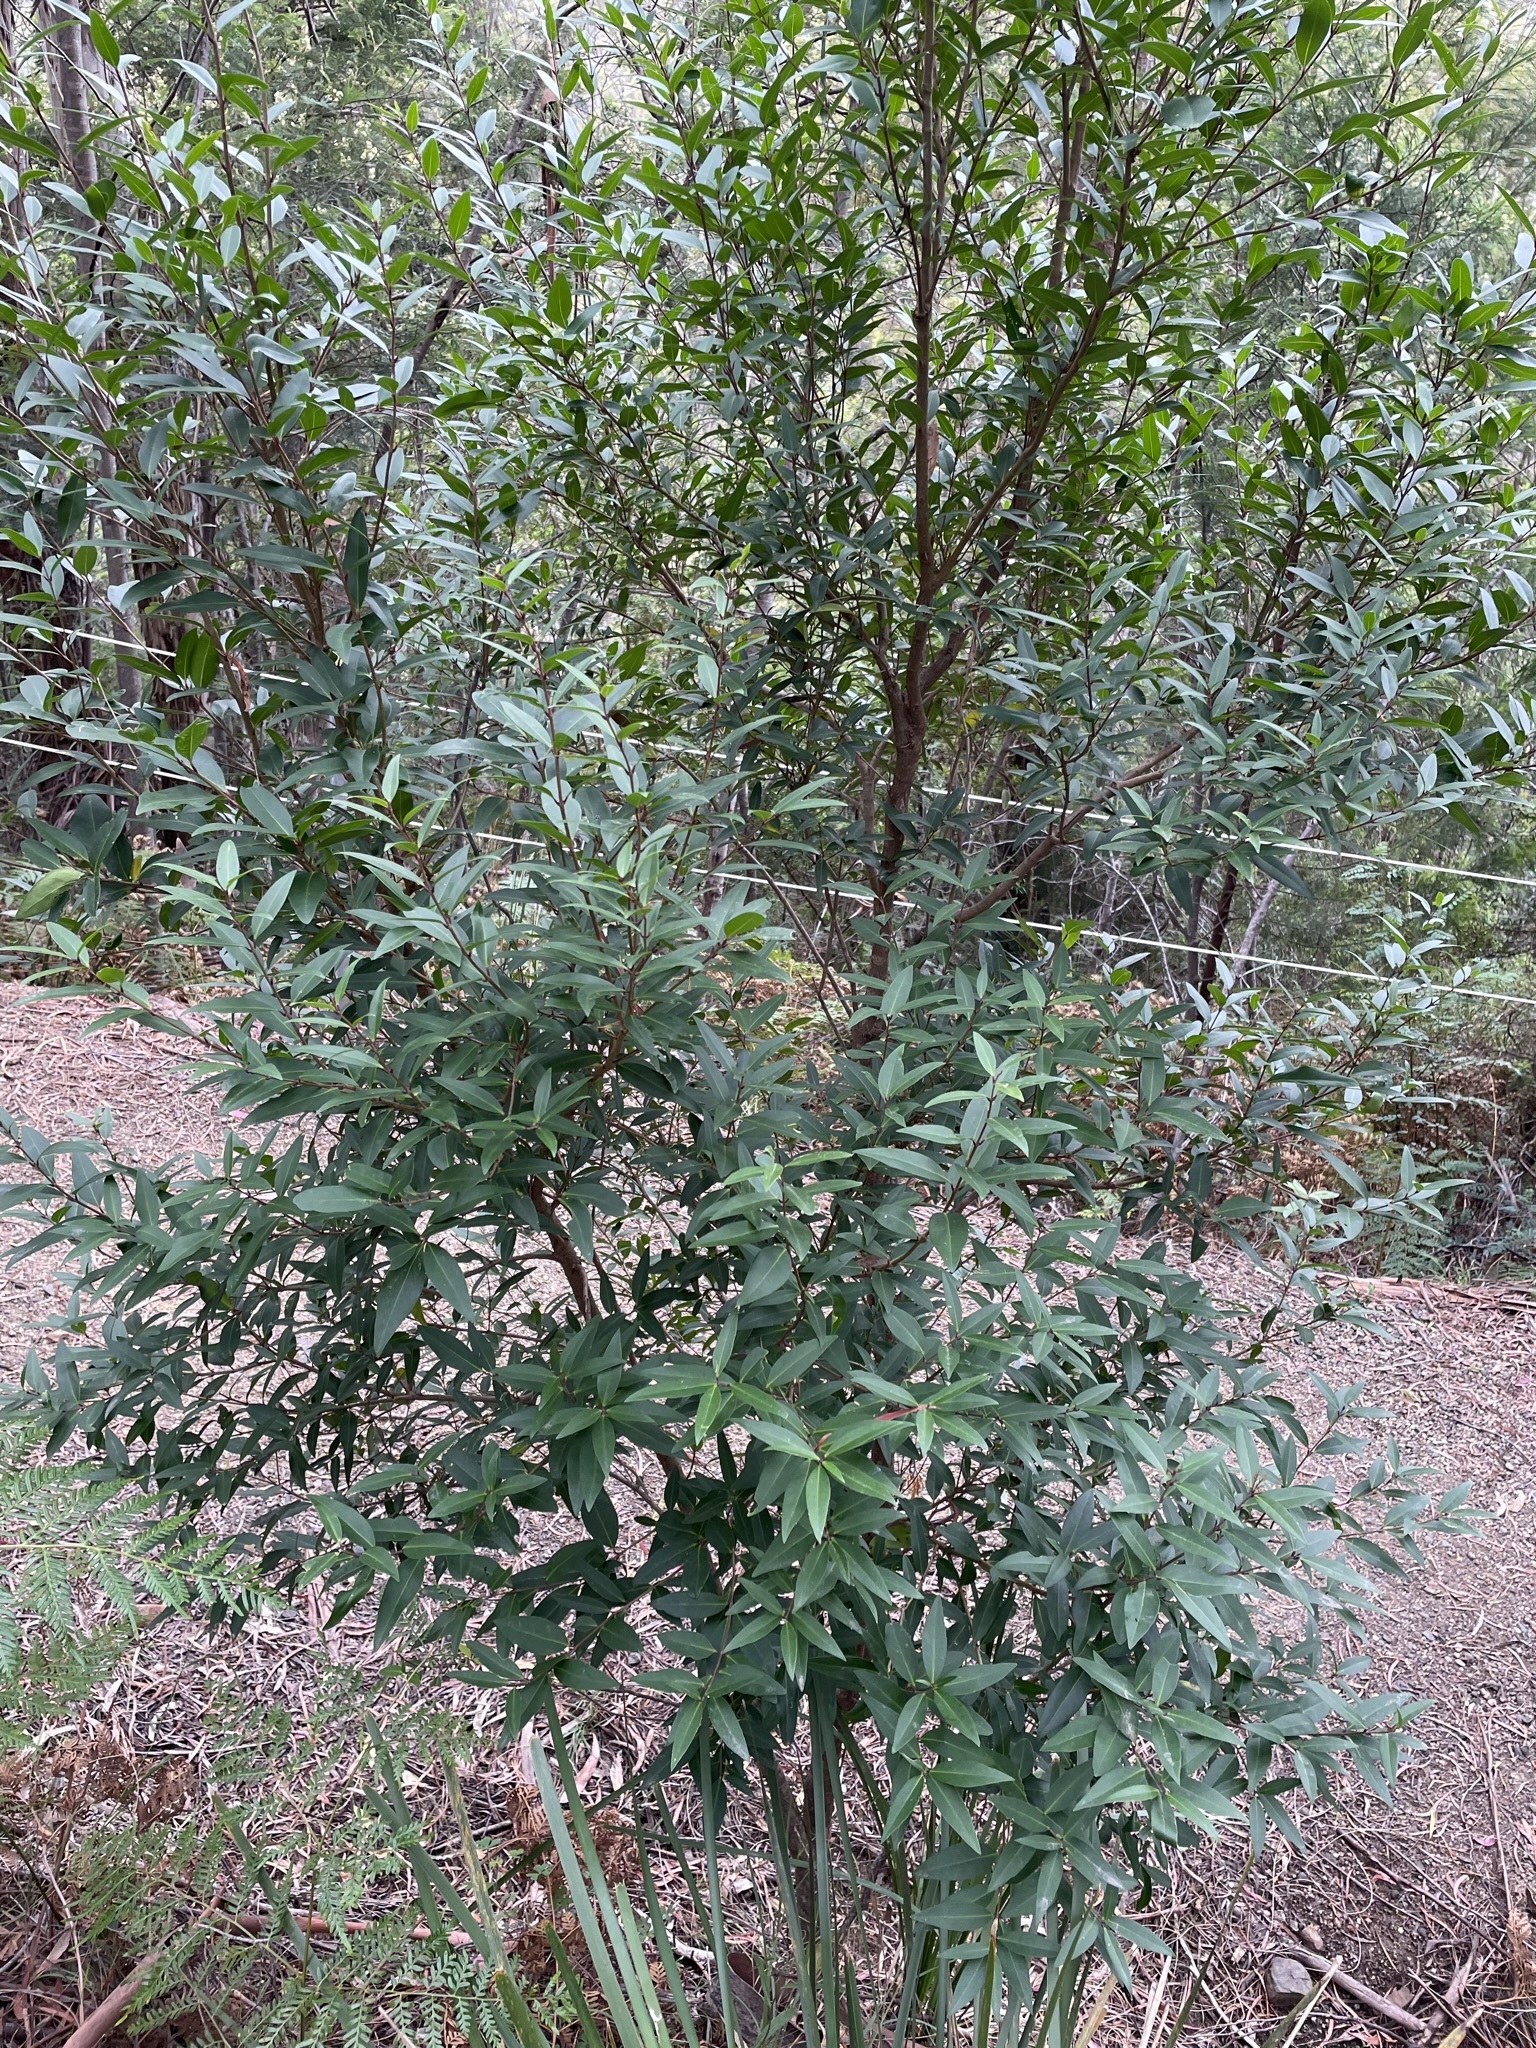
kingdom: Plantae
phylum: Tracheophyta
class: Magnoliopsida
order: Lamiales
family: Oleaceae
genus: Notelaea
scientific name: Notelaea ligustrina
